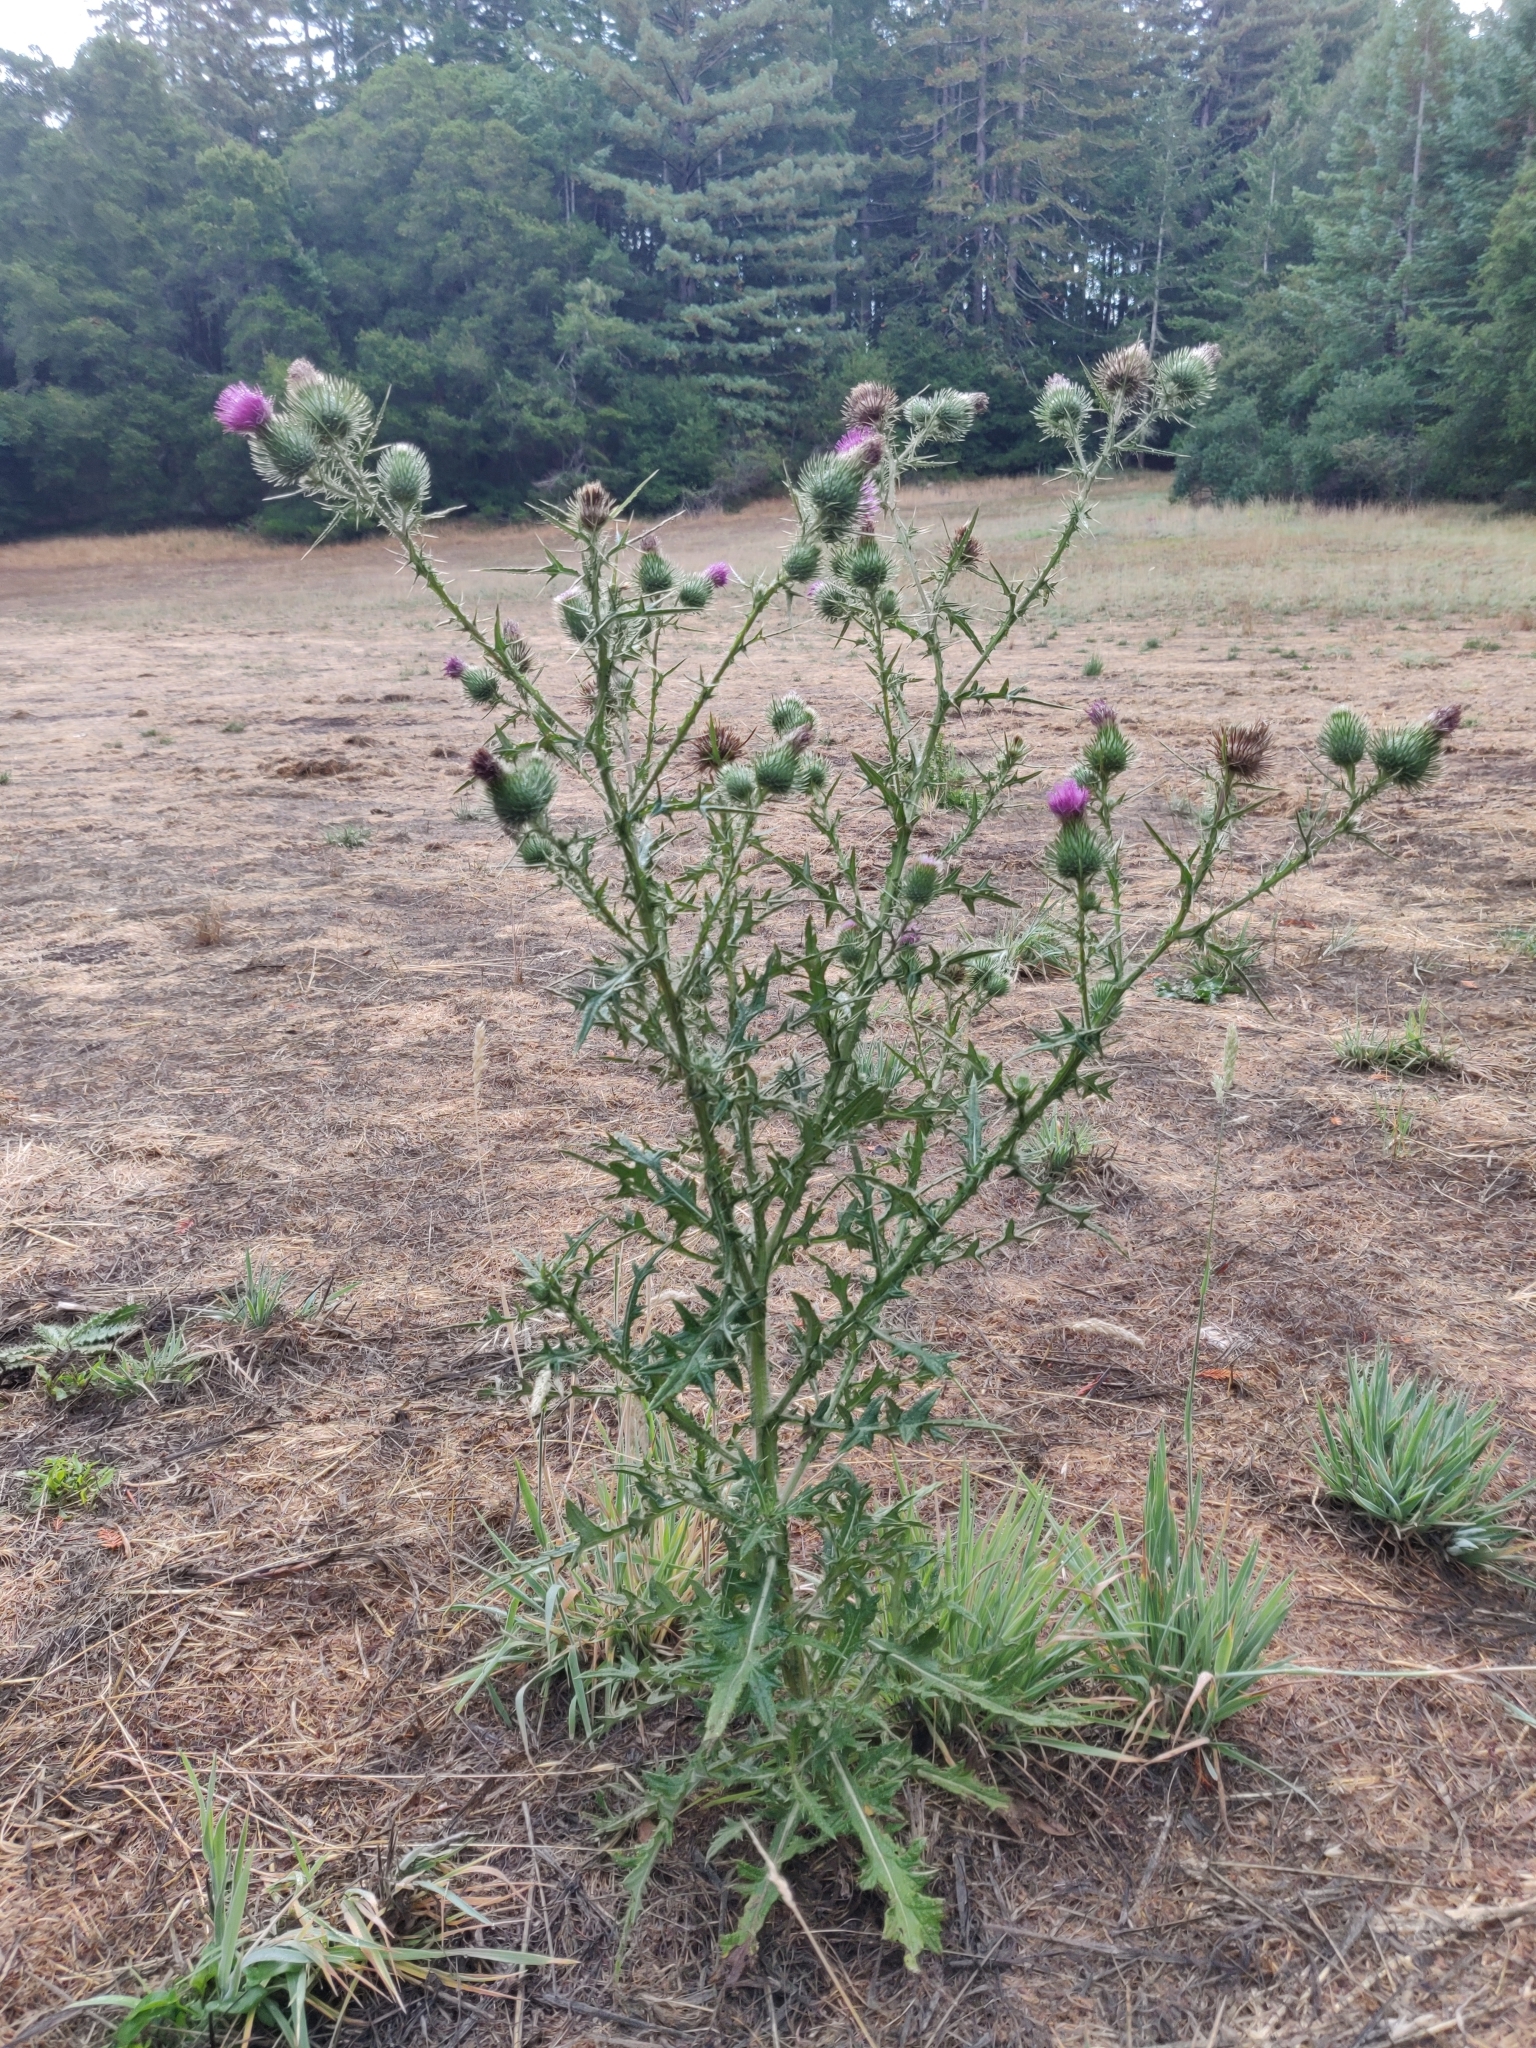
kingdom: Plantae
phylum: Tracheophyta
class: Magnoliopsida
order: Asterales
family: Asteraceae
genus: Cirsium
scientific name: Cirsium vulgare
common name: Bull thistle
